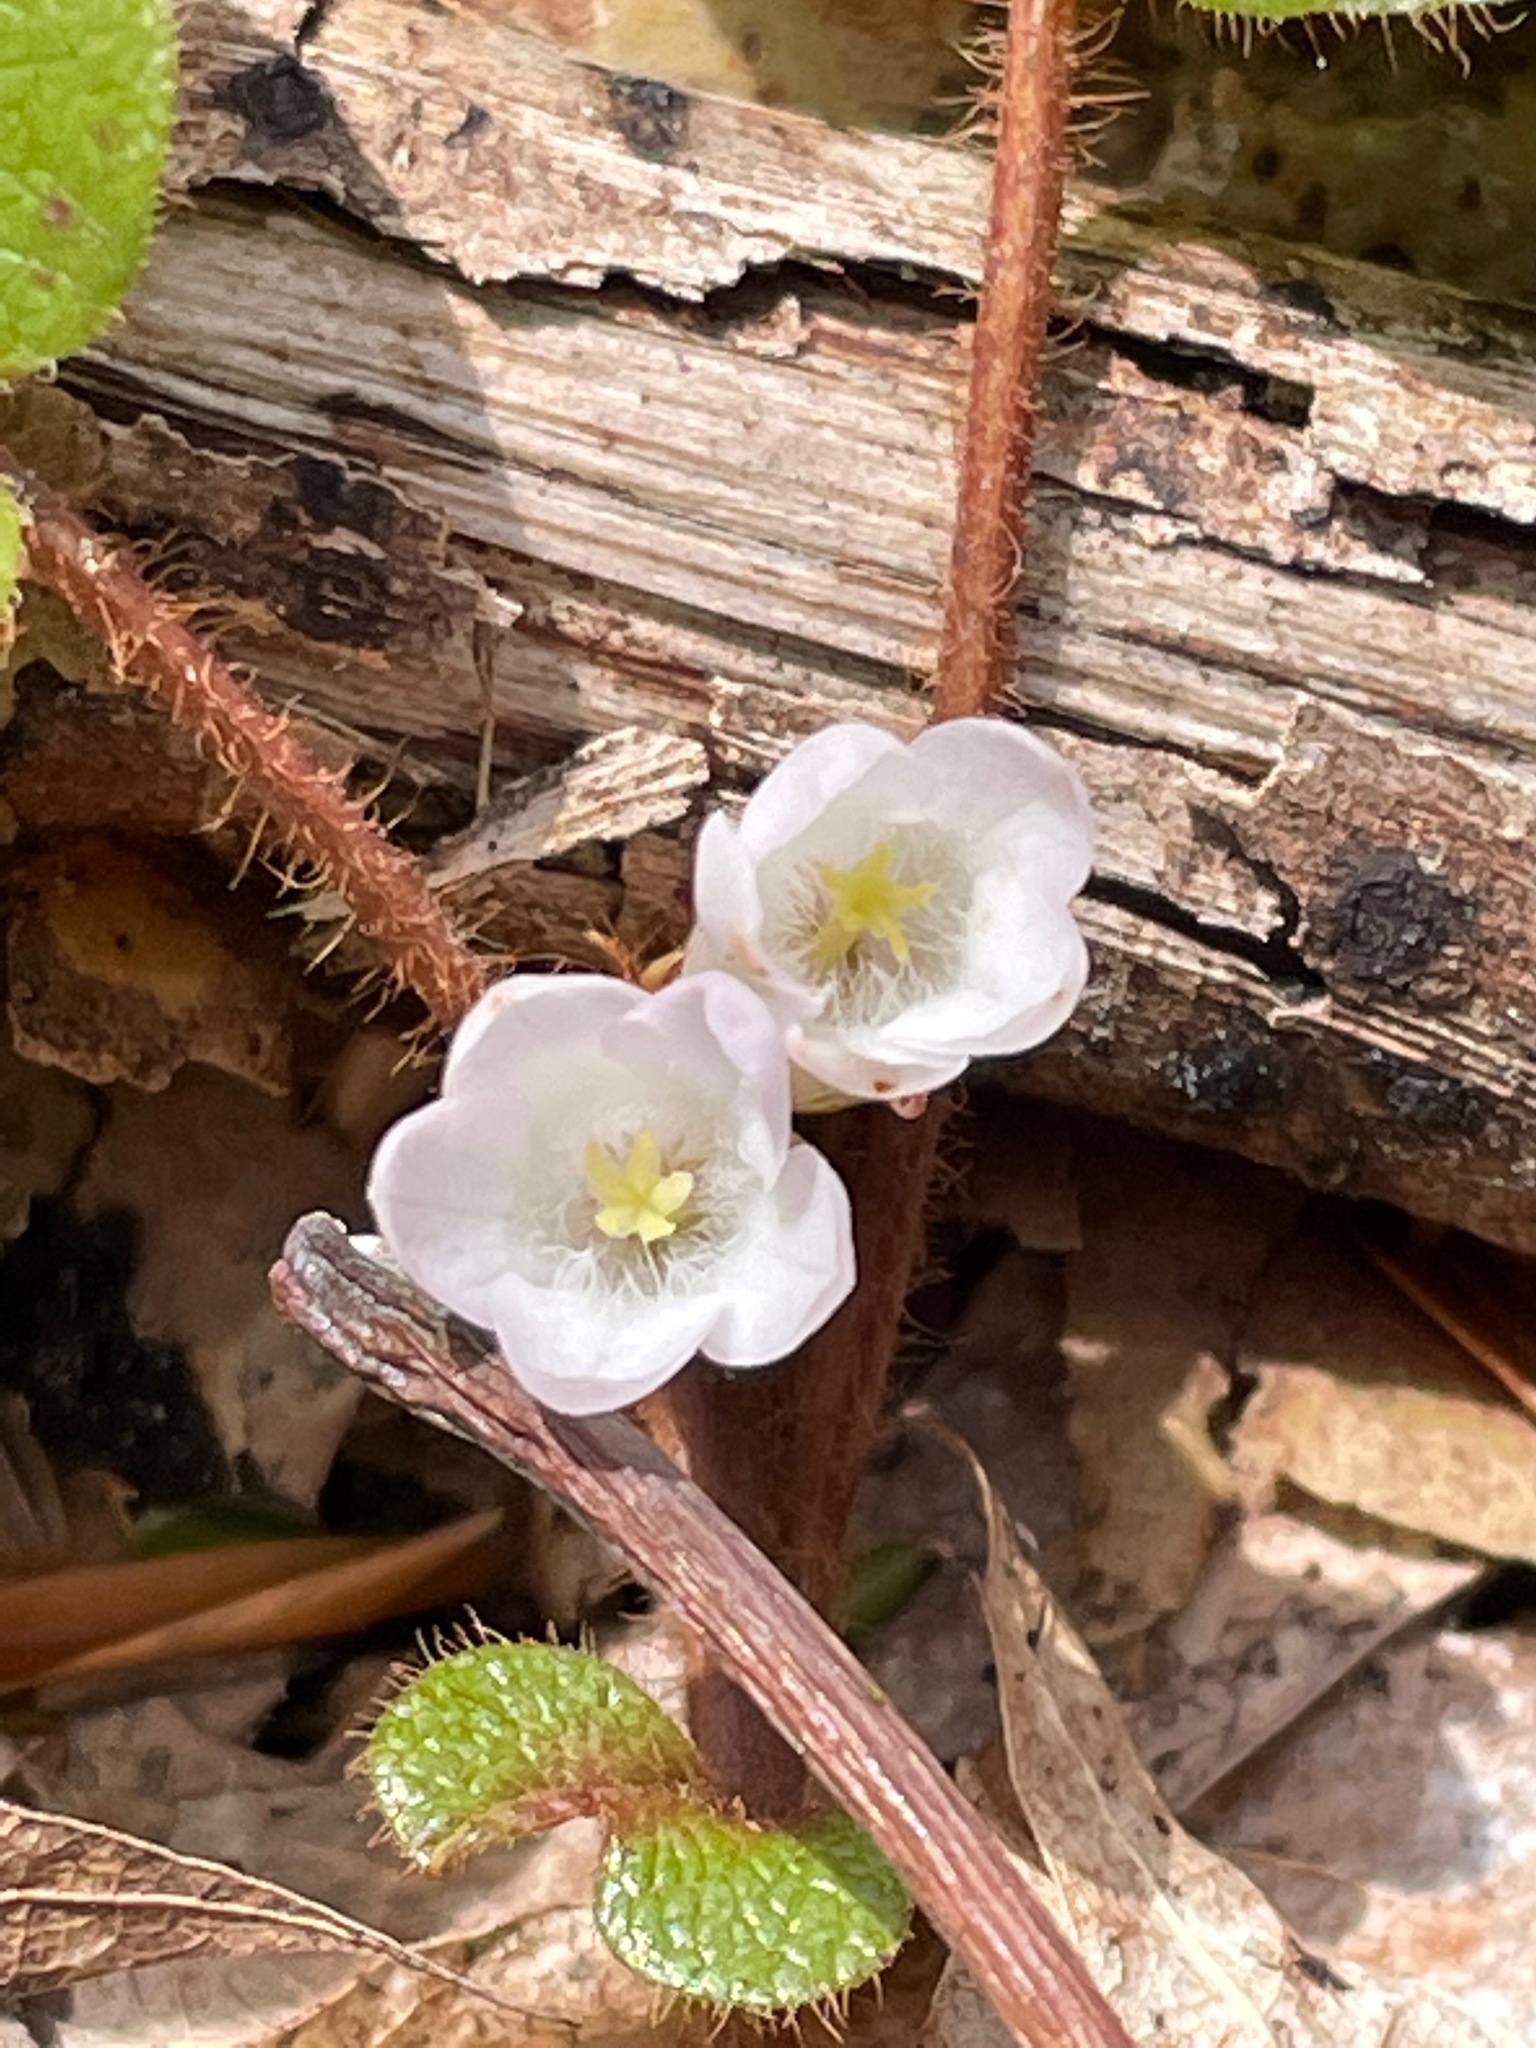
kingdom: Plantae
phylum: Tracheophyta
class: Magnoliopsida
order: Ericales
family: Ericaceae
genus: Epigaea
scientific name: Epigaea repens
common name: Gravelroot
